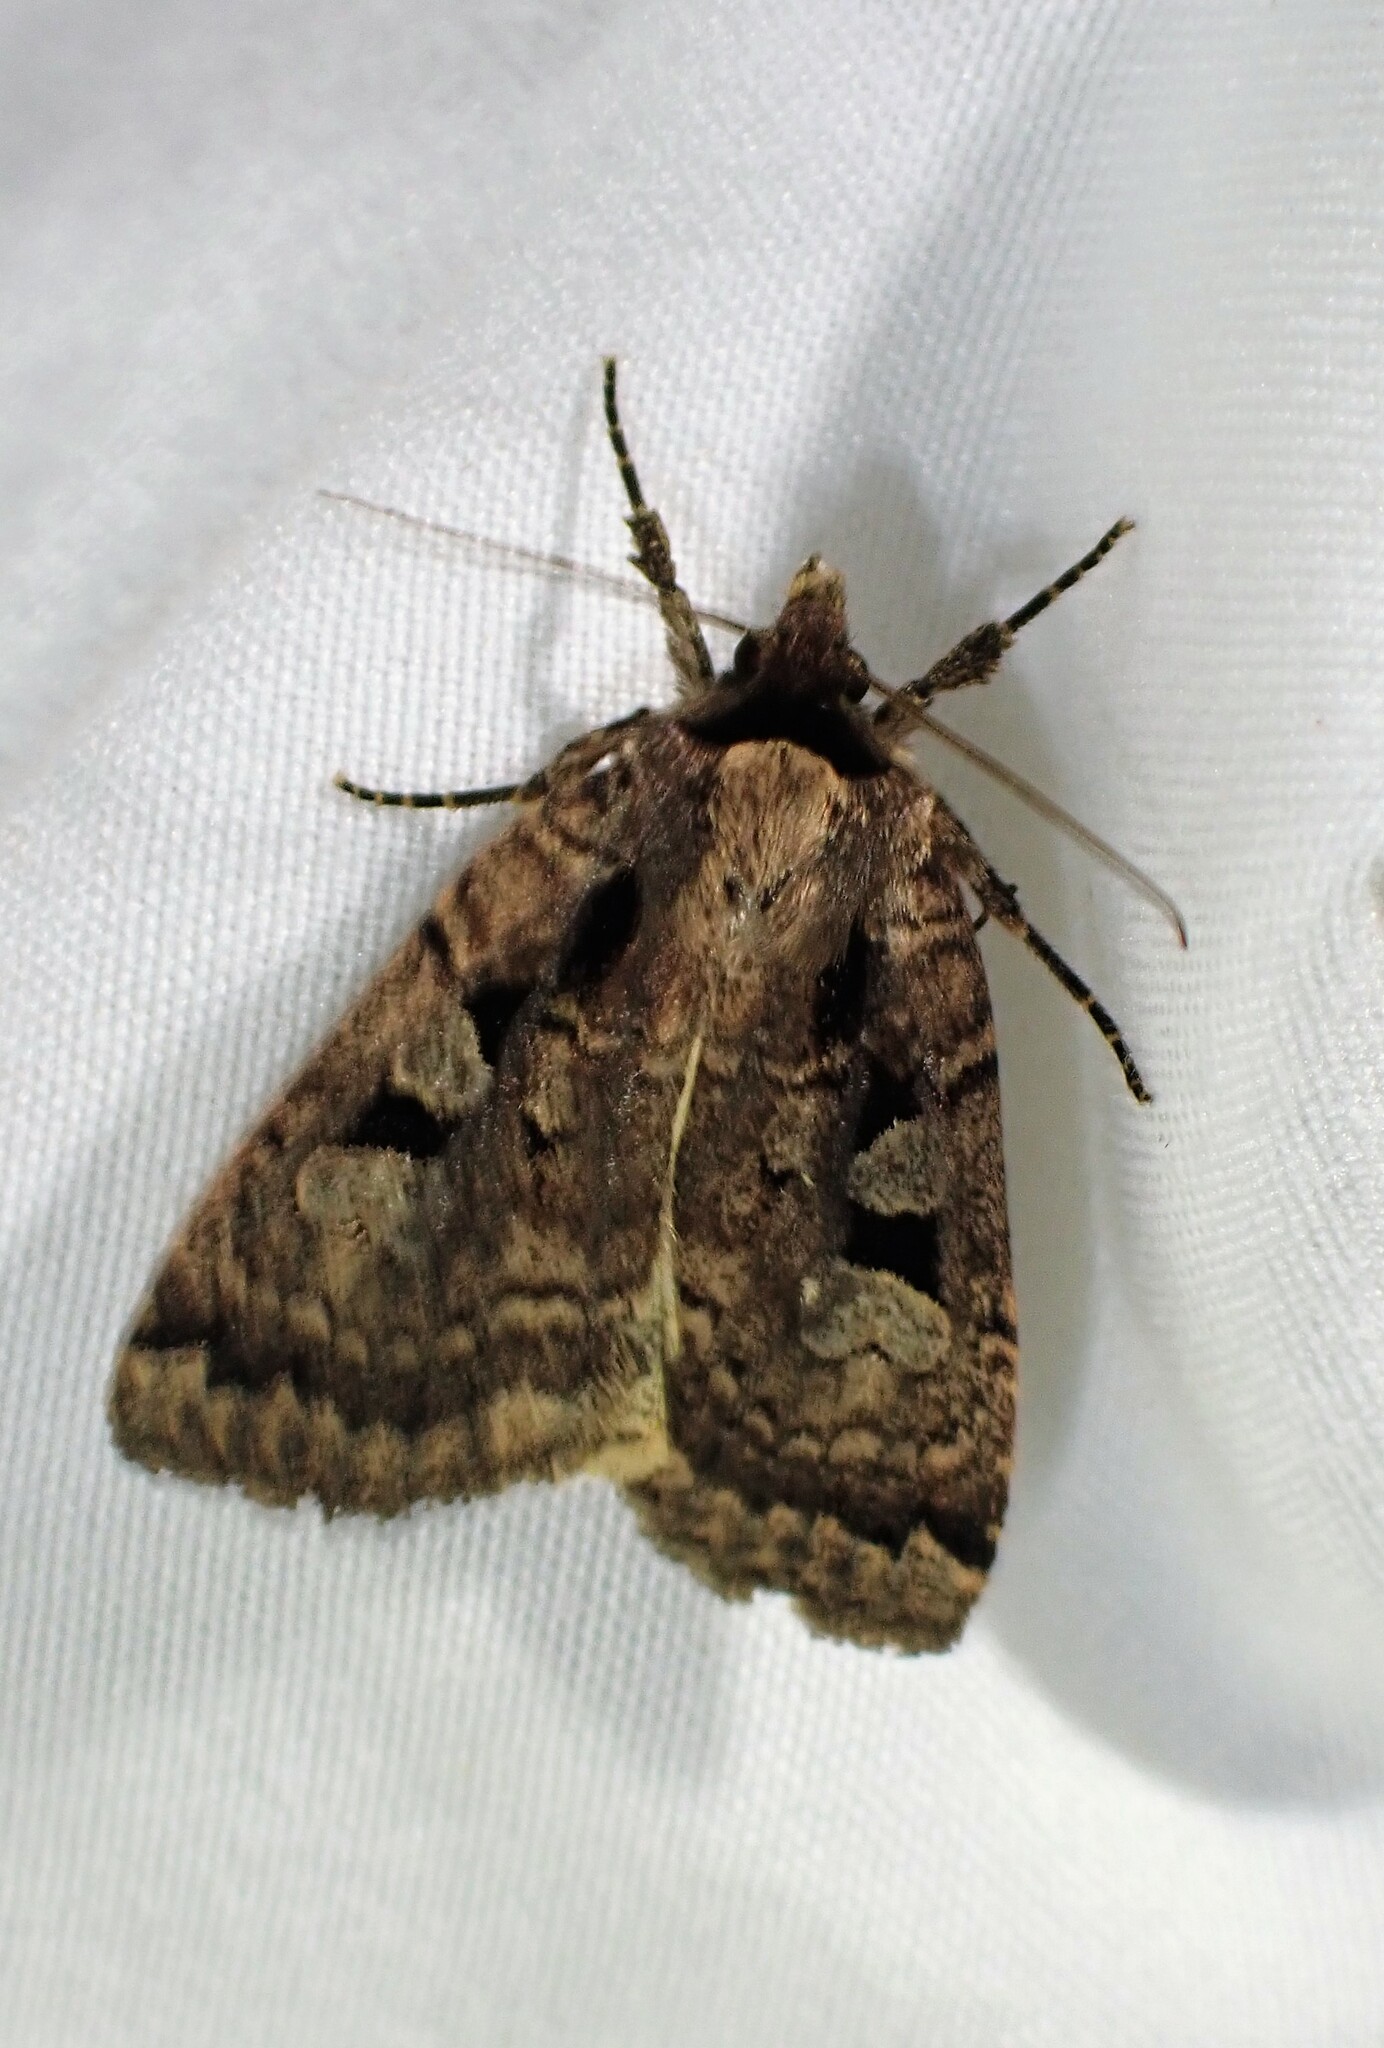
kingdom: Animalia
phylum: Arthropoda
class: Insecta
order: Lepidoptera
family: Noctuidae
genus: Eueretagrotis
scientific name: Eueretagrotis perattentus
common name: Two-spot dart moth
